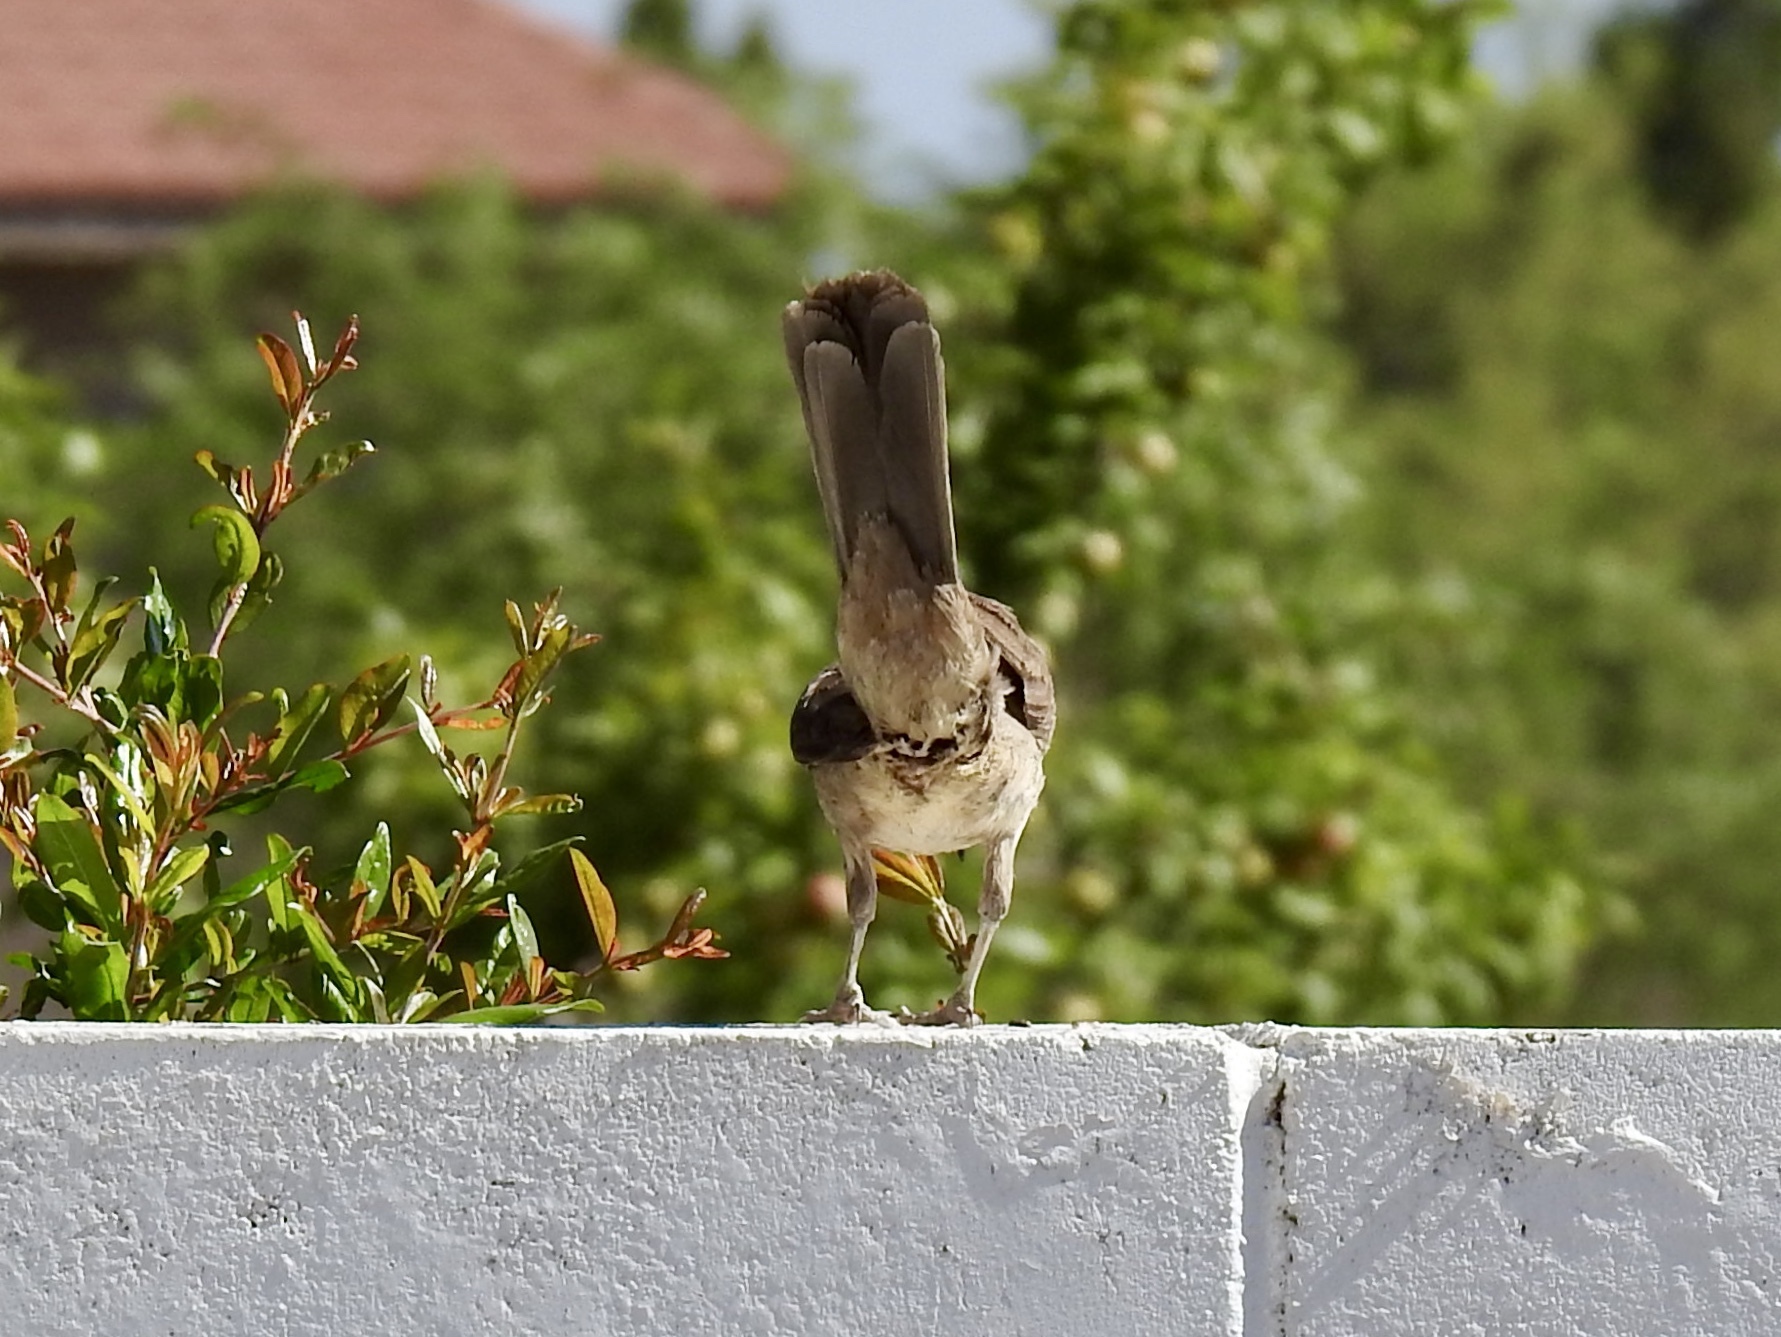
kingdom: Animalia
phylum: Chordata
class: Aves
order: Passeriformes
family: Mimidae
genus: Toxostoma
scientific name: Toxostoma curvirostre
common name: Curve-billed thrasher
